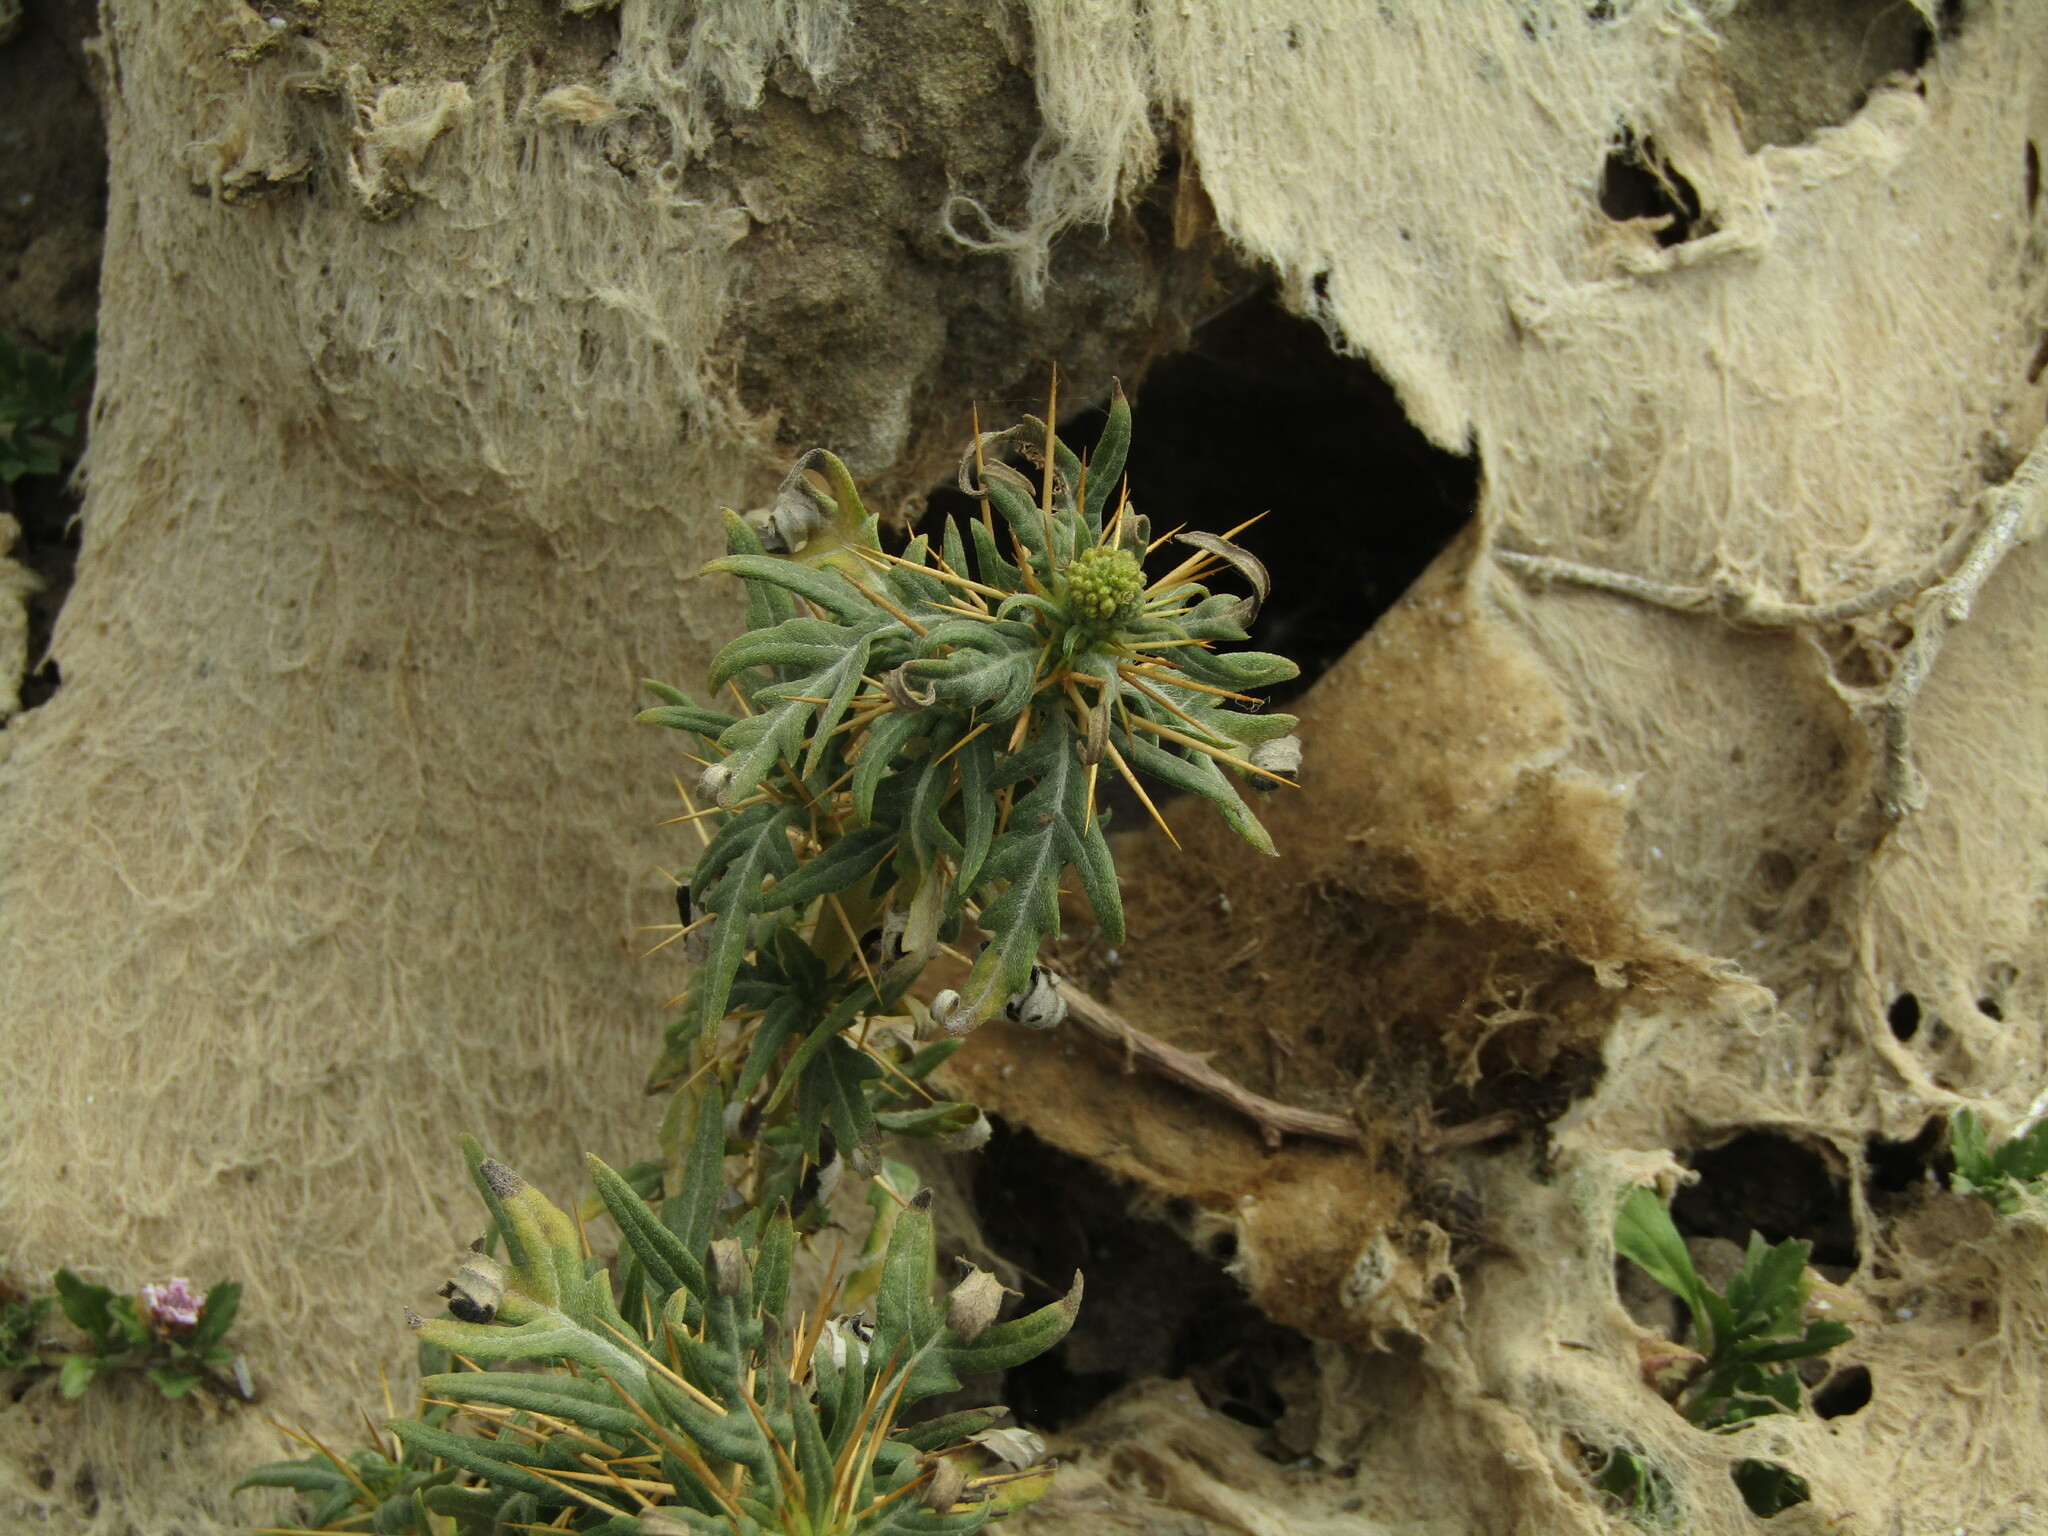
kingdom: Plantae
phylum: Tracheophyta
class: Magnoliopsida
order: Asterales
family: Asteraceae
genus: Xanthium
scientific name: Xanthium spinosum
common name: Spiny cocklebur
